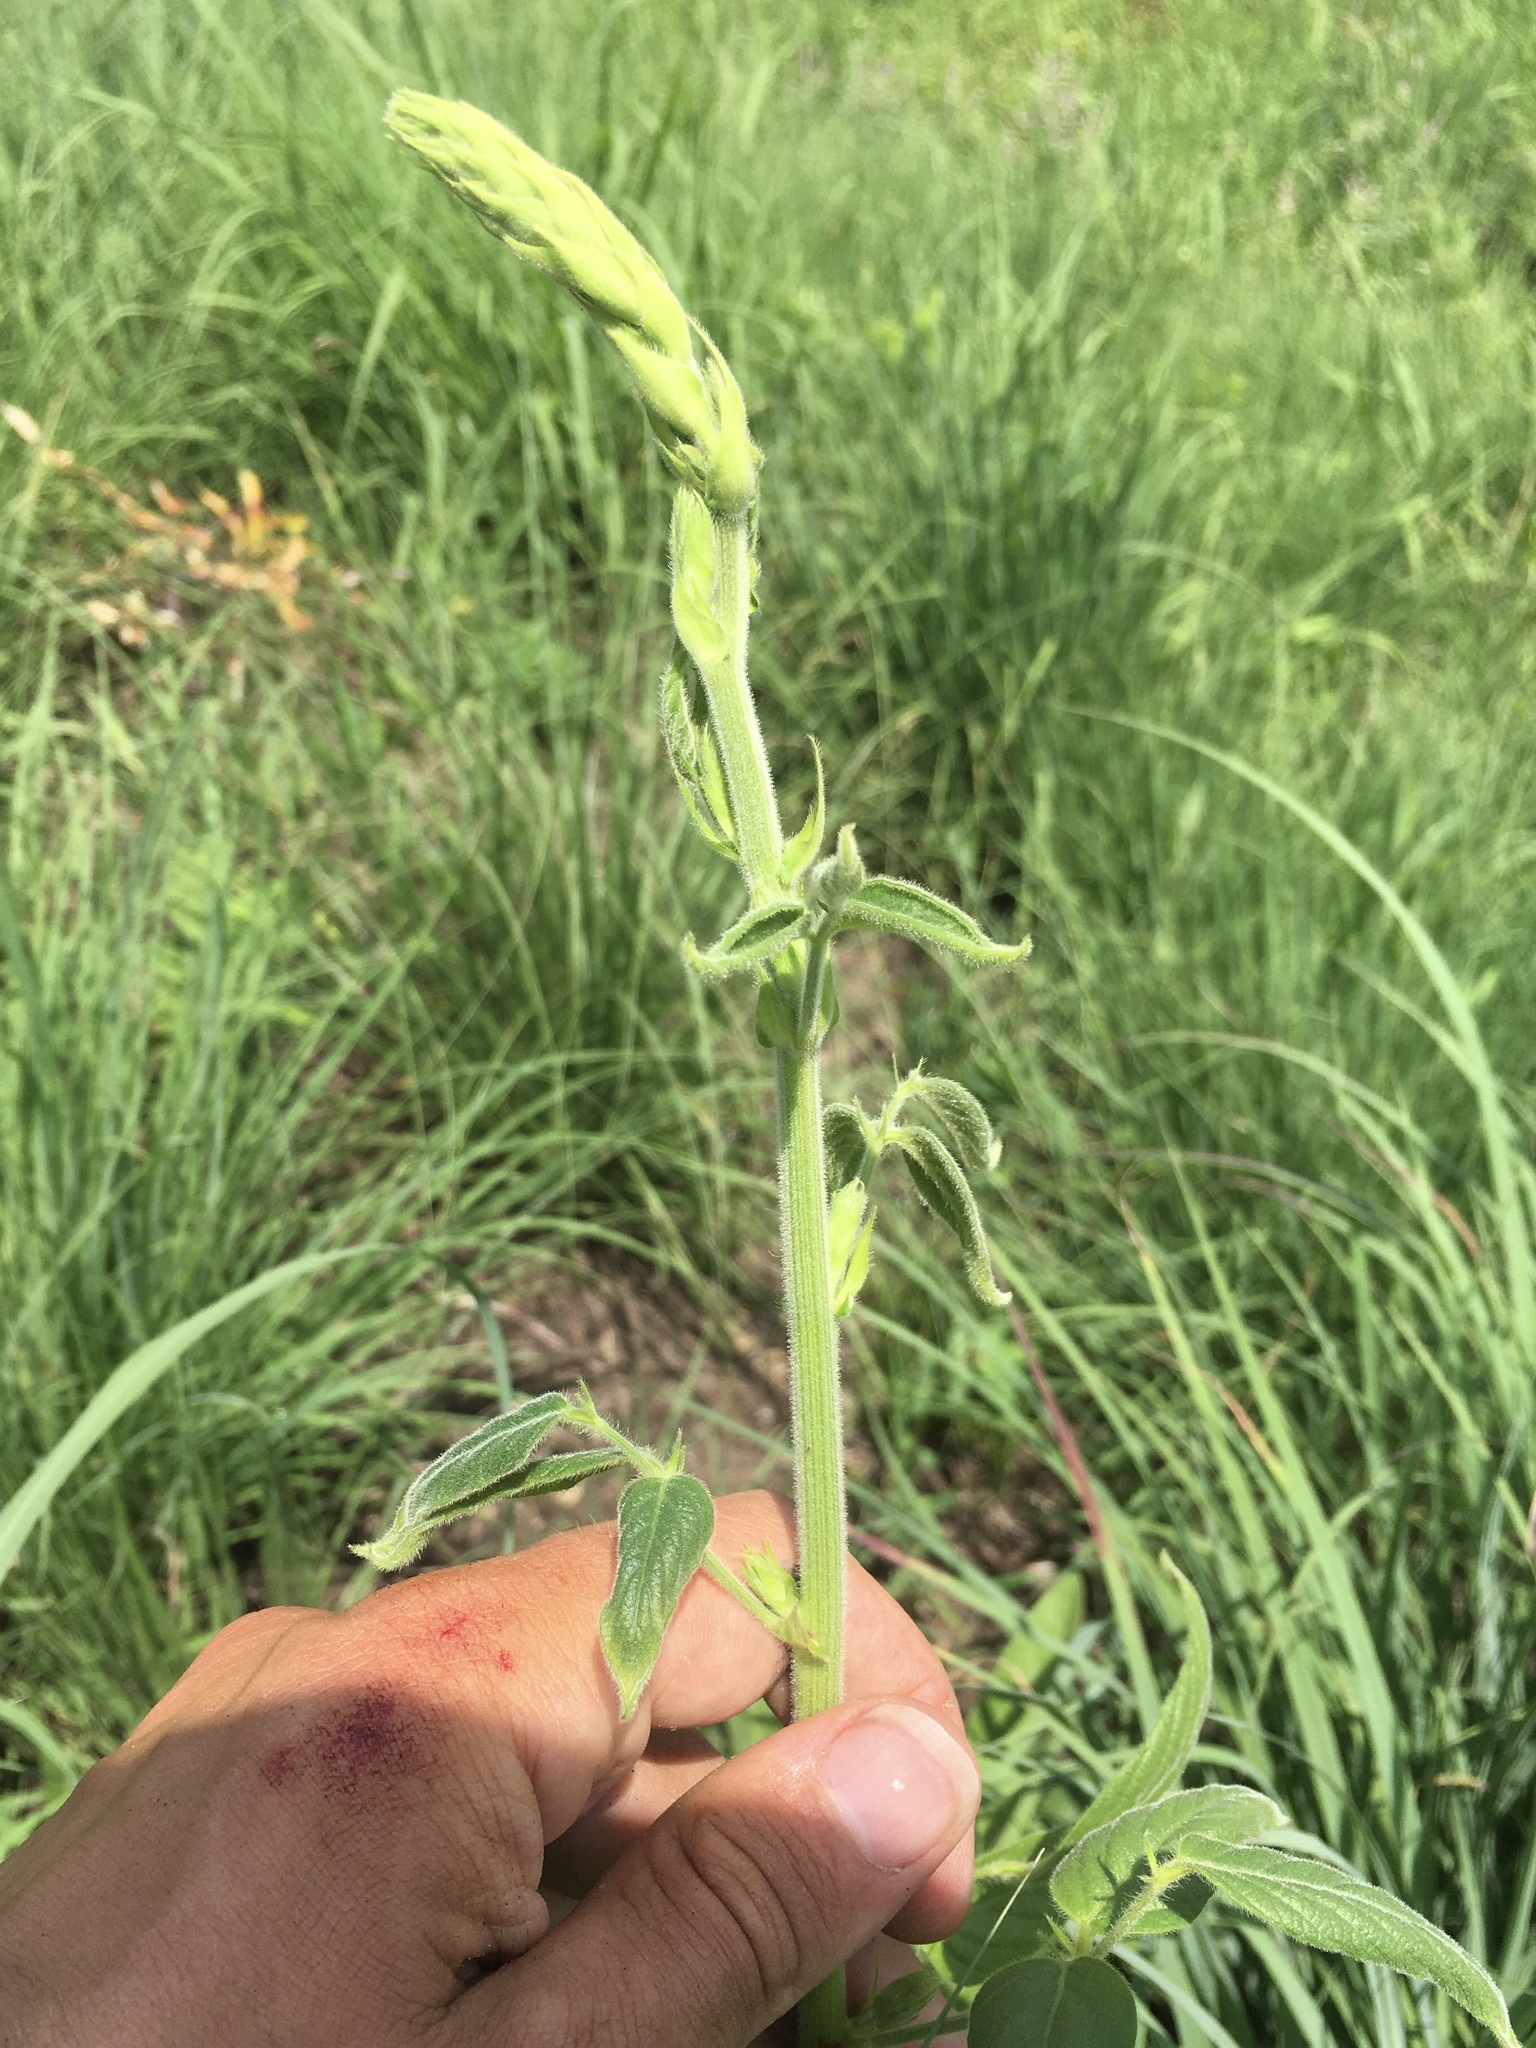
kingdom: Plantae
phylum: Tracheophyta
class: Magnoliopsida
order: Fabales
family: Fabaceae
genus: Desmodium
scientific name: Desmodium illinoense
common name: Illinois tick-clover
